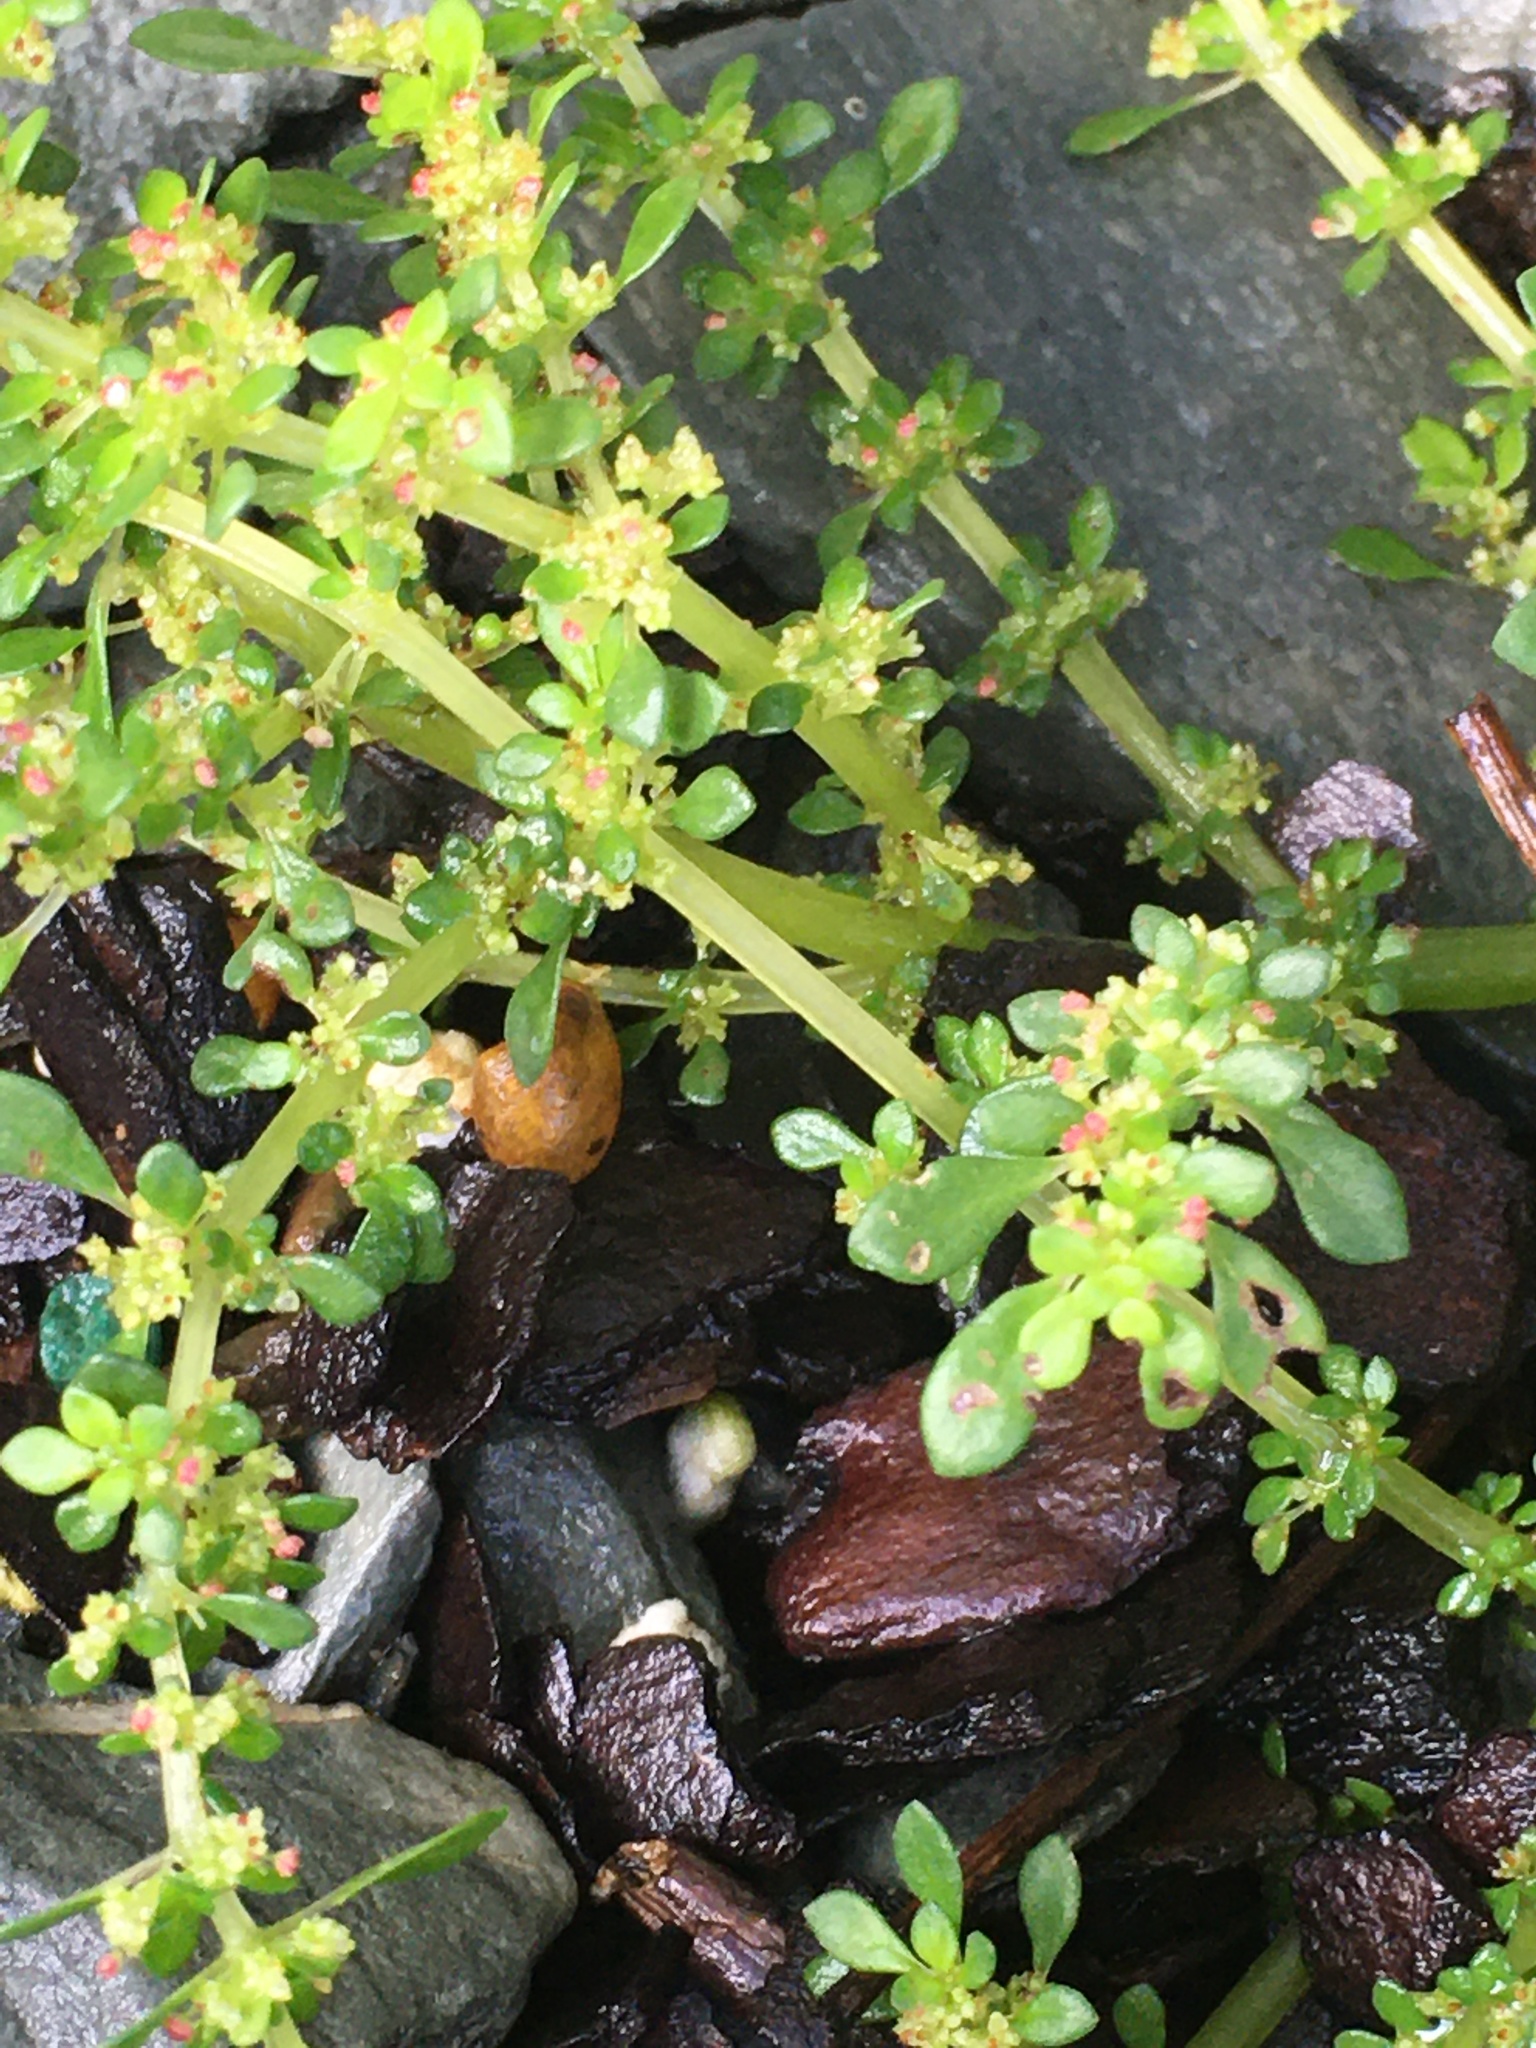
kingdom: Plantae
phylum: Tracheophyta
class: Magnoliopsida
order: Rosales
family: Urticaceae
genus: Pilea
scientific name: Pilea microphylla
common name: Artillery-plant
